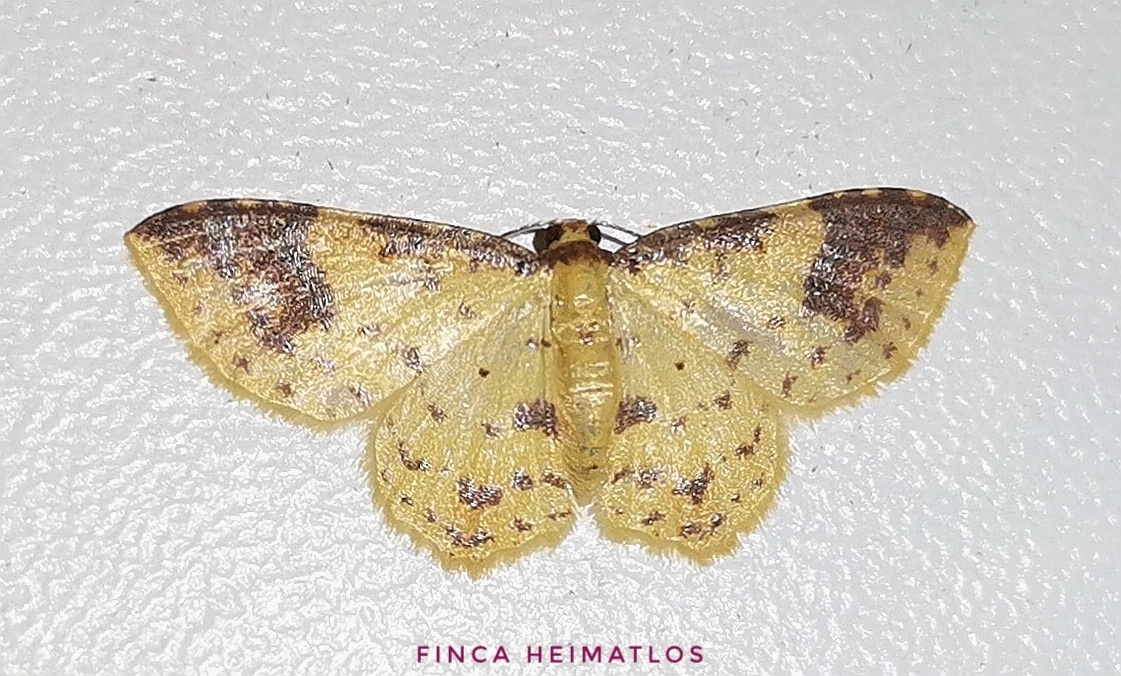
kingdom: Animalia
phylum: Arthropoda
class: Insecta
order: Lepidoptera
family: Geometridae
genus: Eois
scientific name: Eois restrictata
